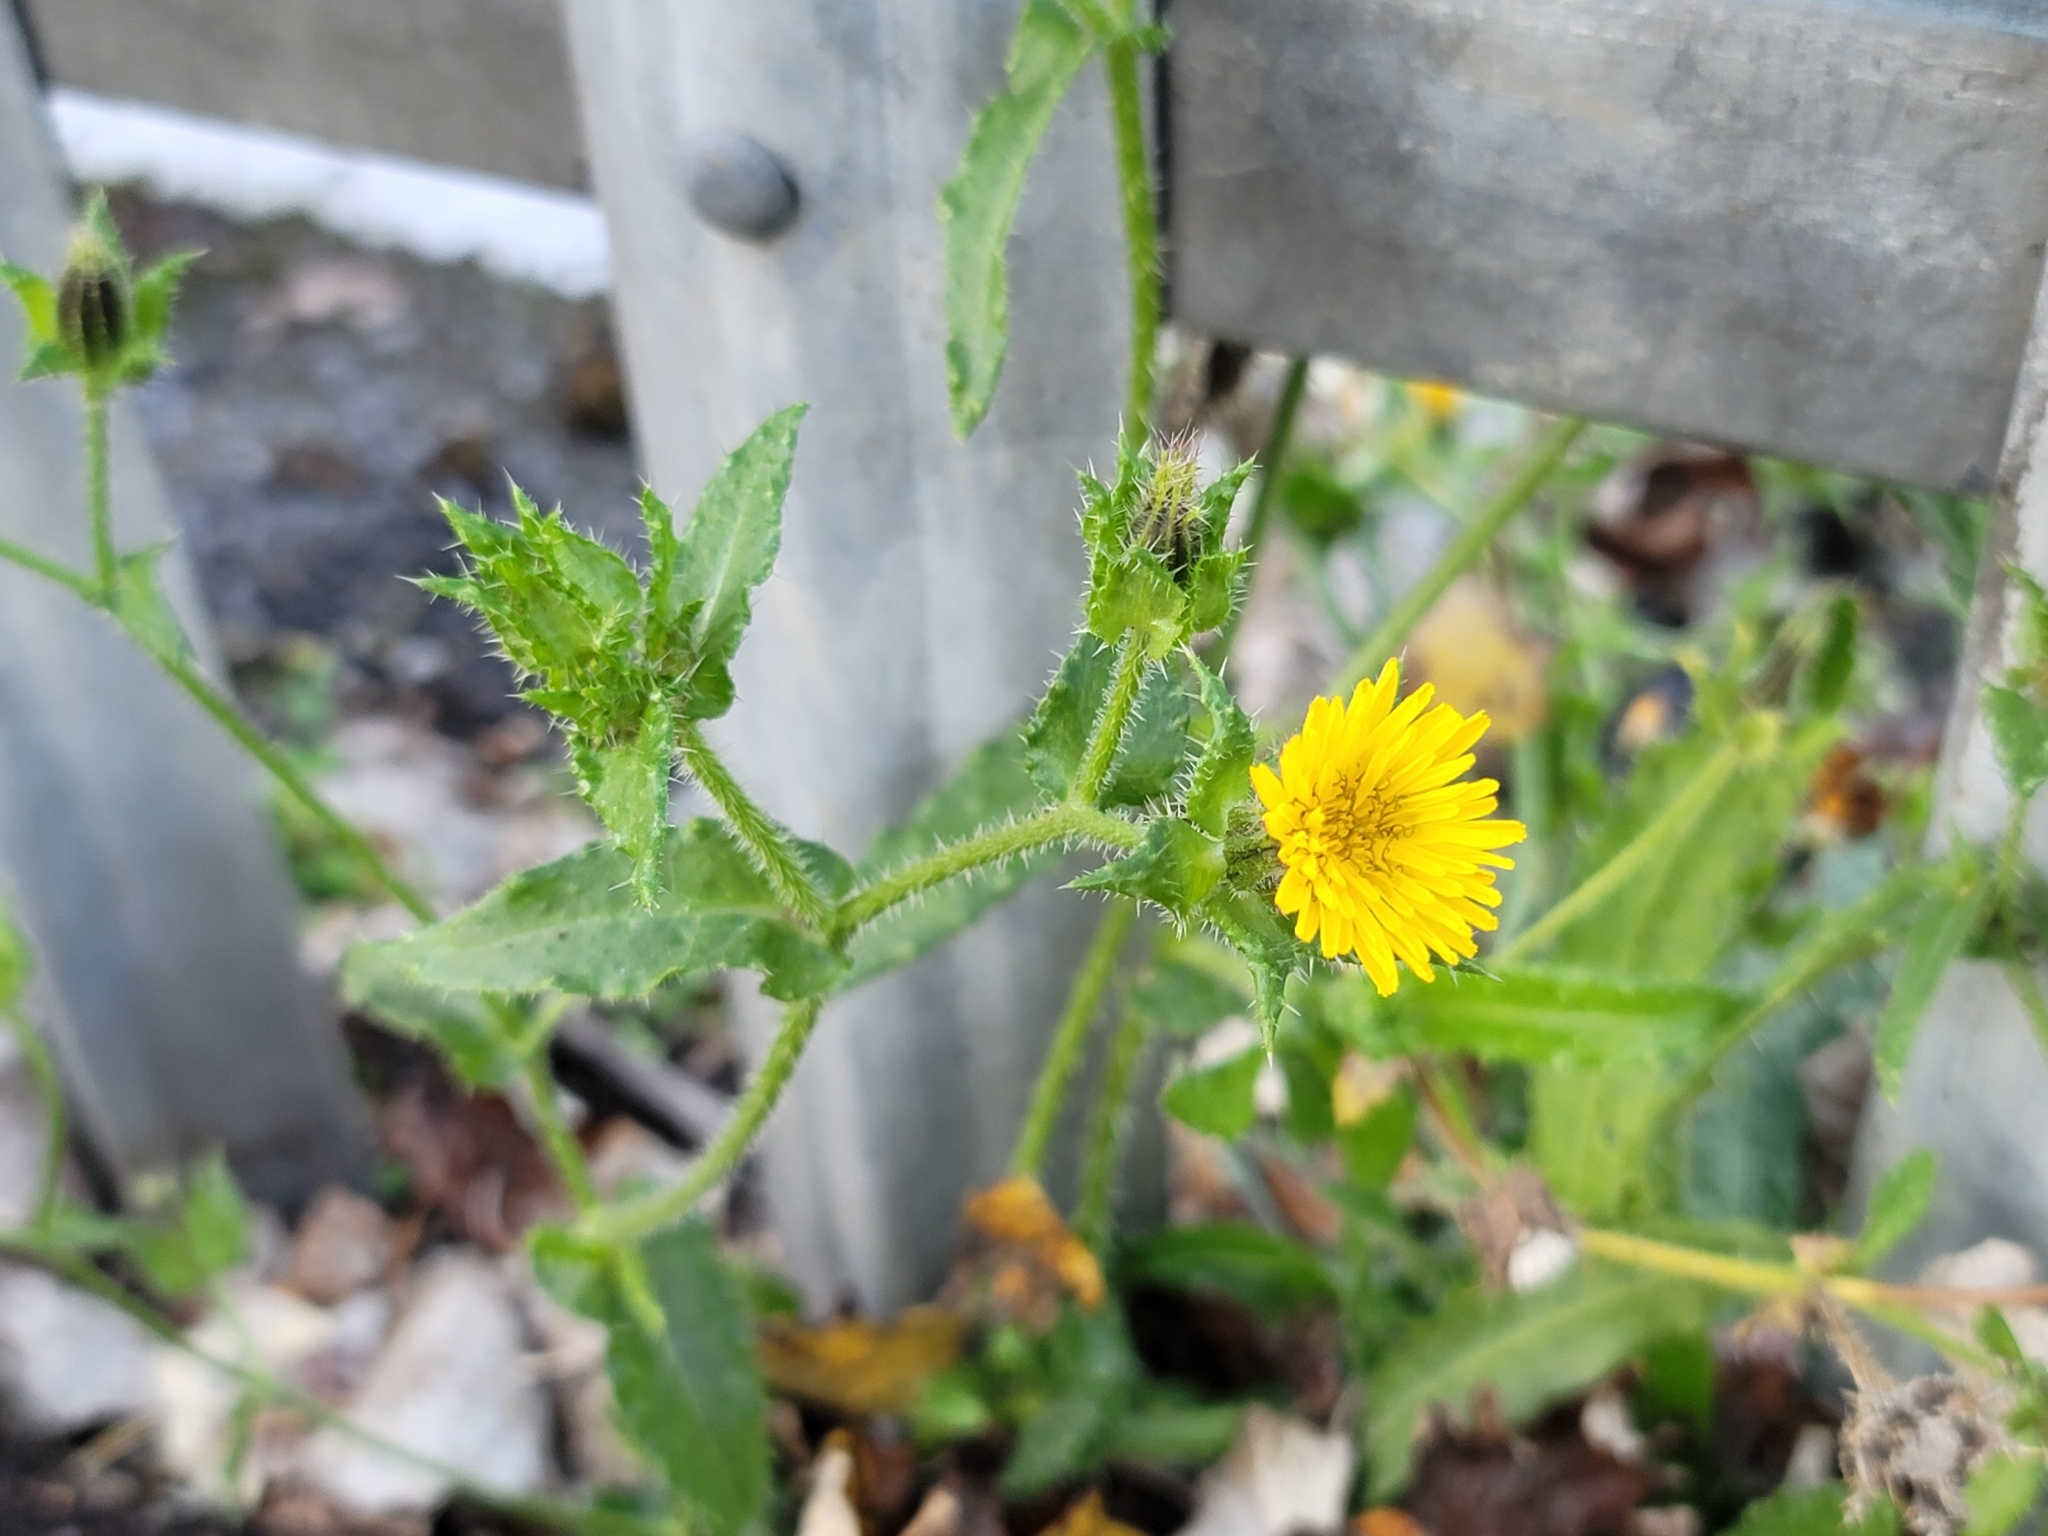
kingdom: Plantae
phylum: Tracheophyta
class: Magnoliopsida
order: Asterales
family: Asteraceae
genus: Helminthotheca
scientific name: Helminthotheca echioides
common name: Ox-tongue
